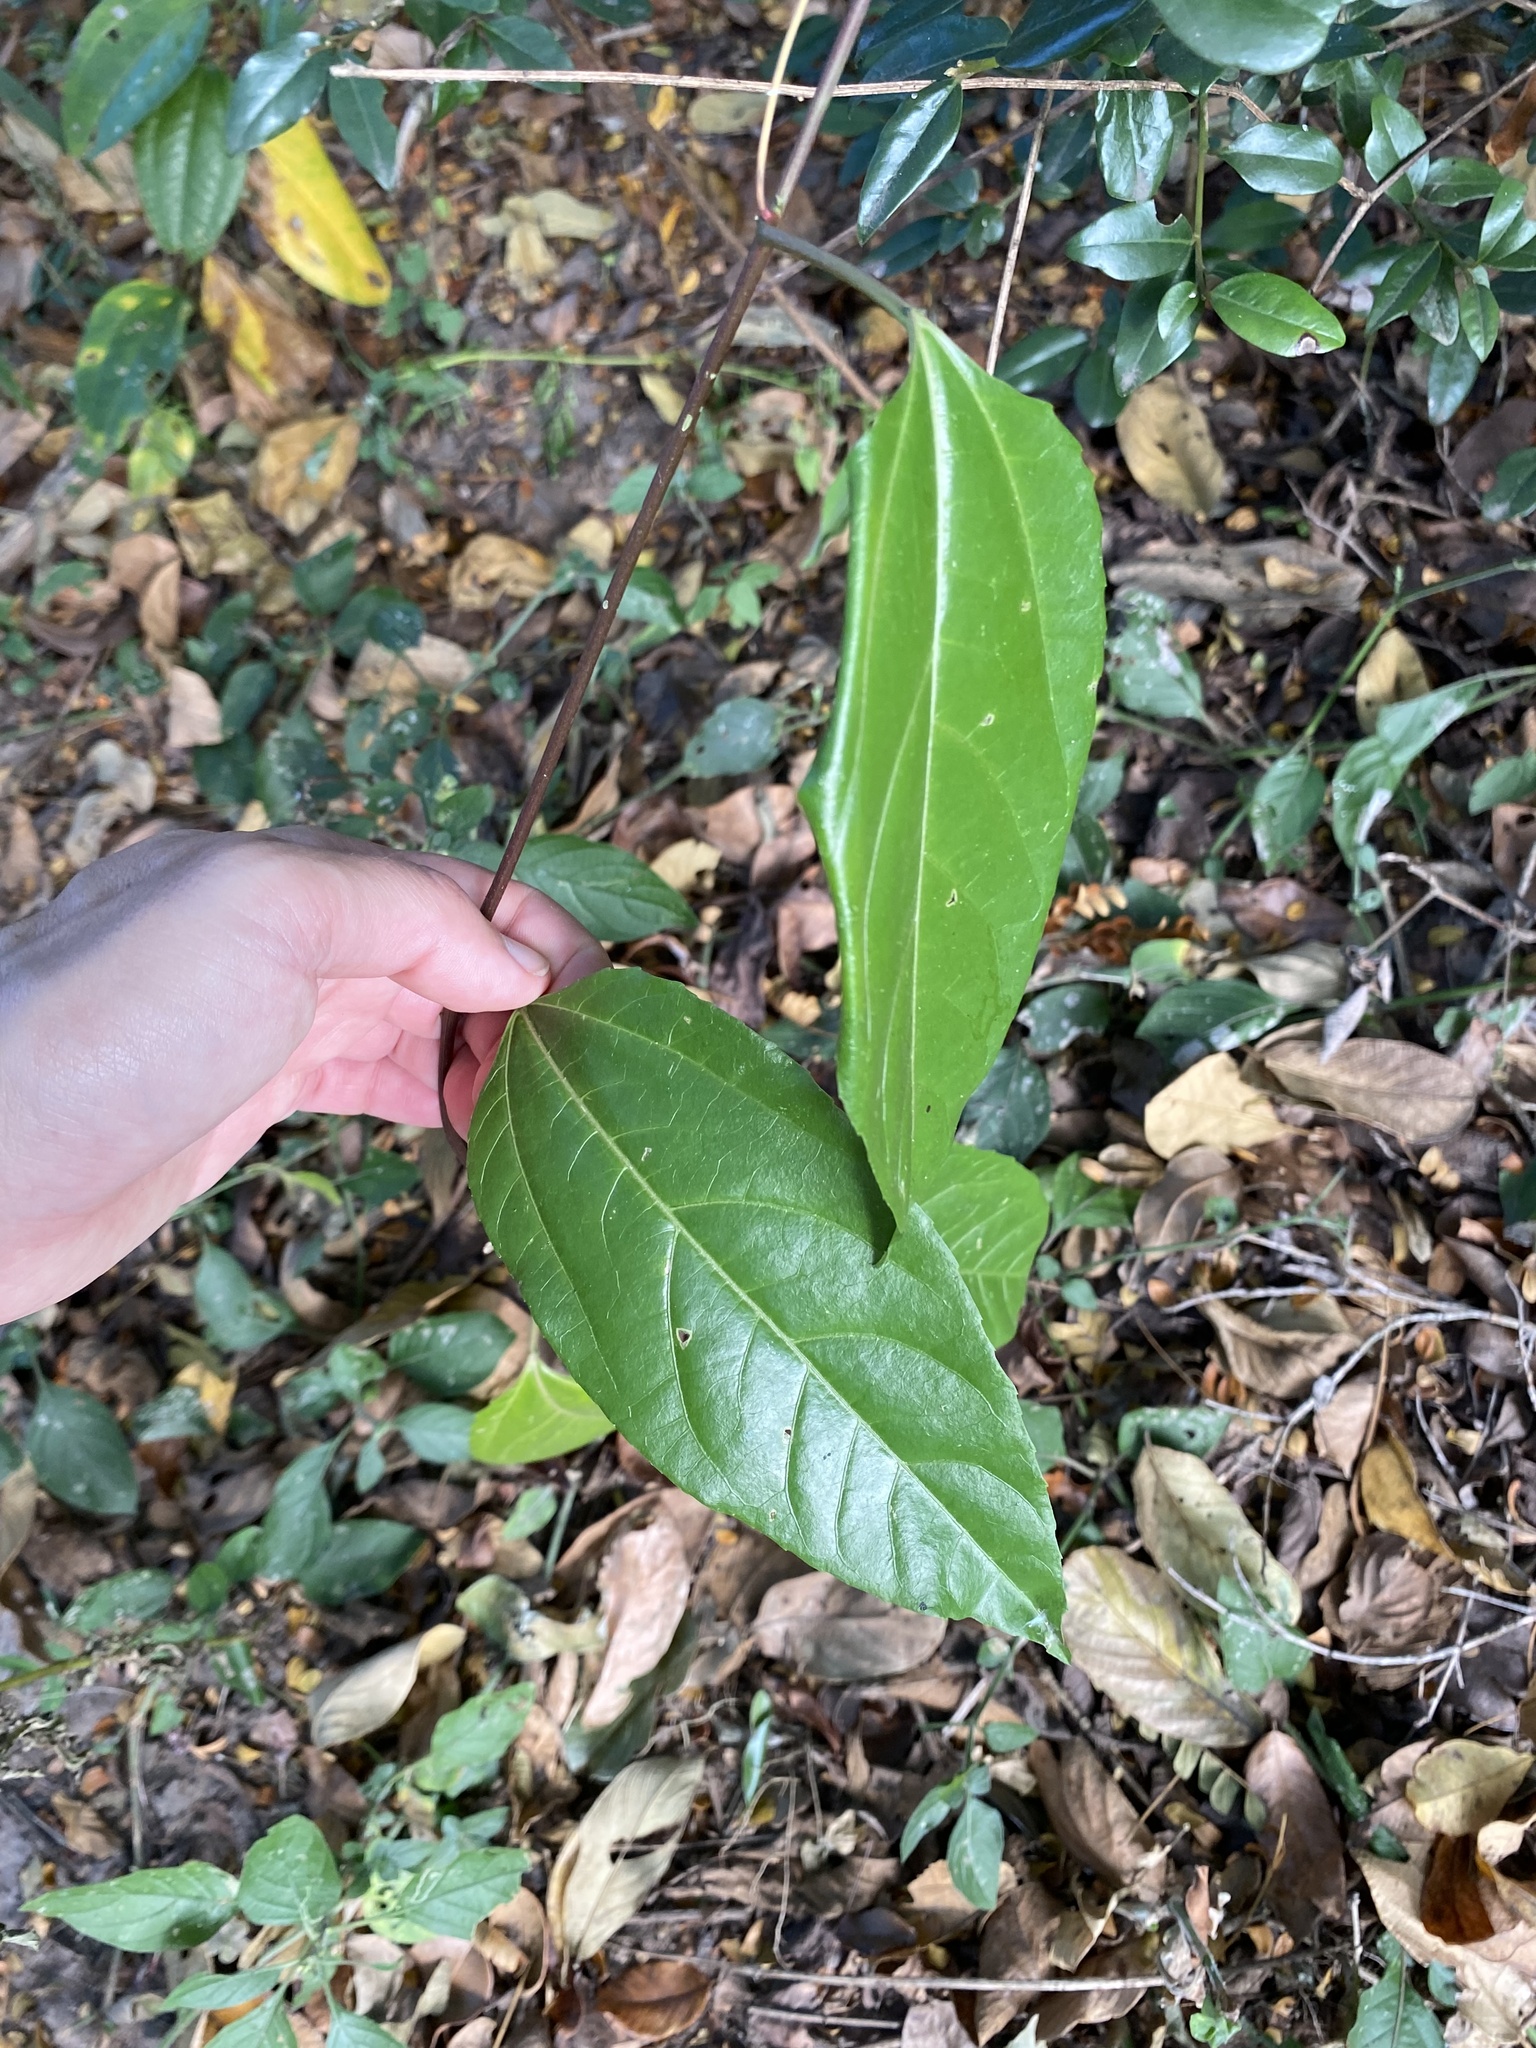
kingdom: Plantae
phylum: Tracheophyta
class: Magnoliopsida
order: Malpighiales
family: Passifloraceae
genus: Passiflora
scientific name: Passiflora edulis
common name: Purple granadilla
